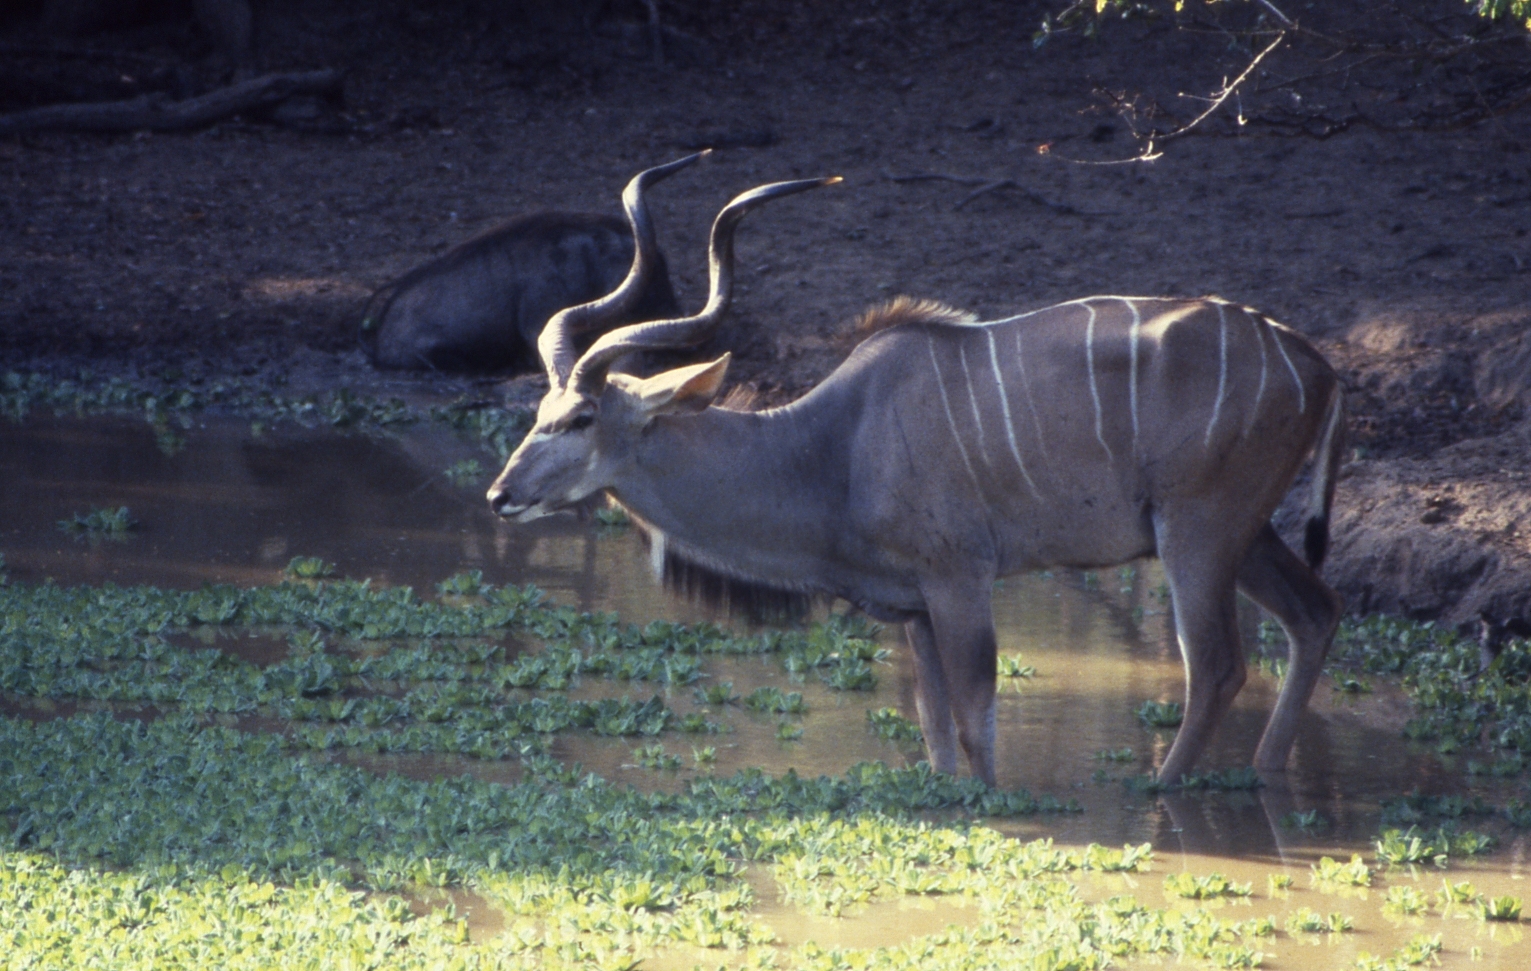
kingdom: Animalia
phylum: Chordata
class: Mammalia
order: Artiodactyla
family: Bovidae
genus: Tragelaphus
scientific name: Tragelaphus strepsiceros
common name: Greater kudu
